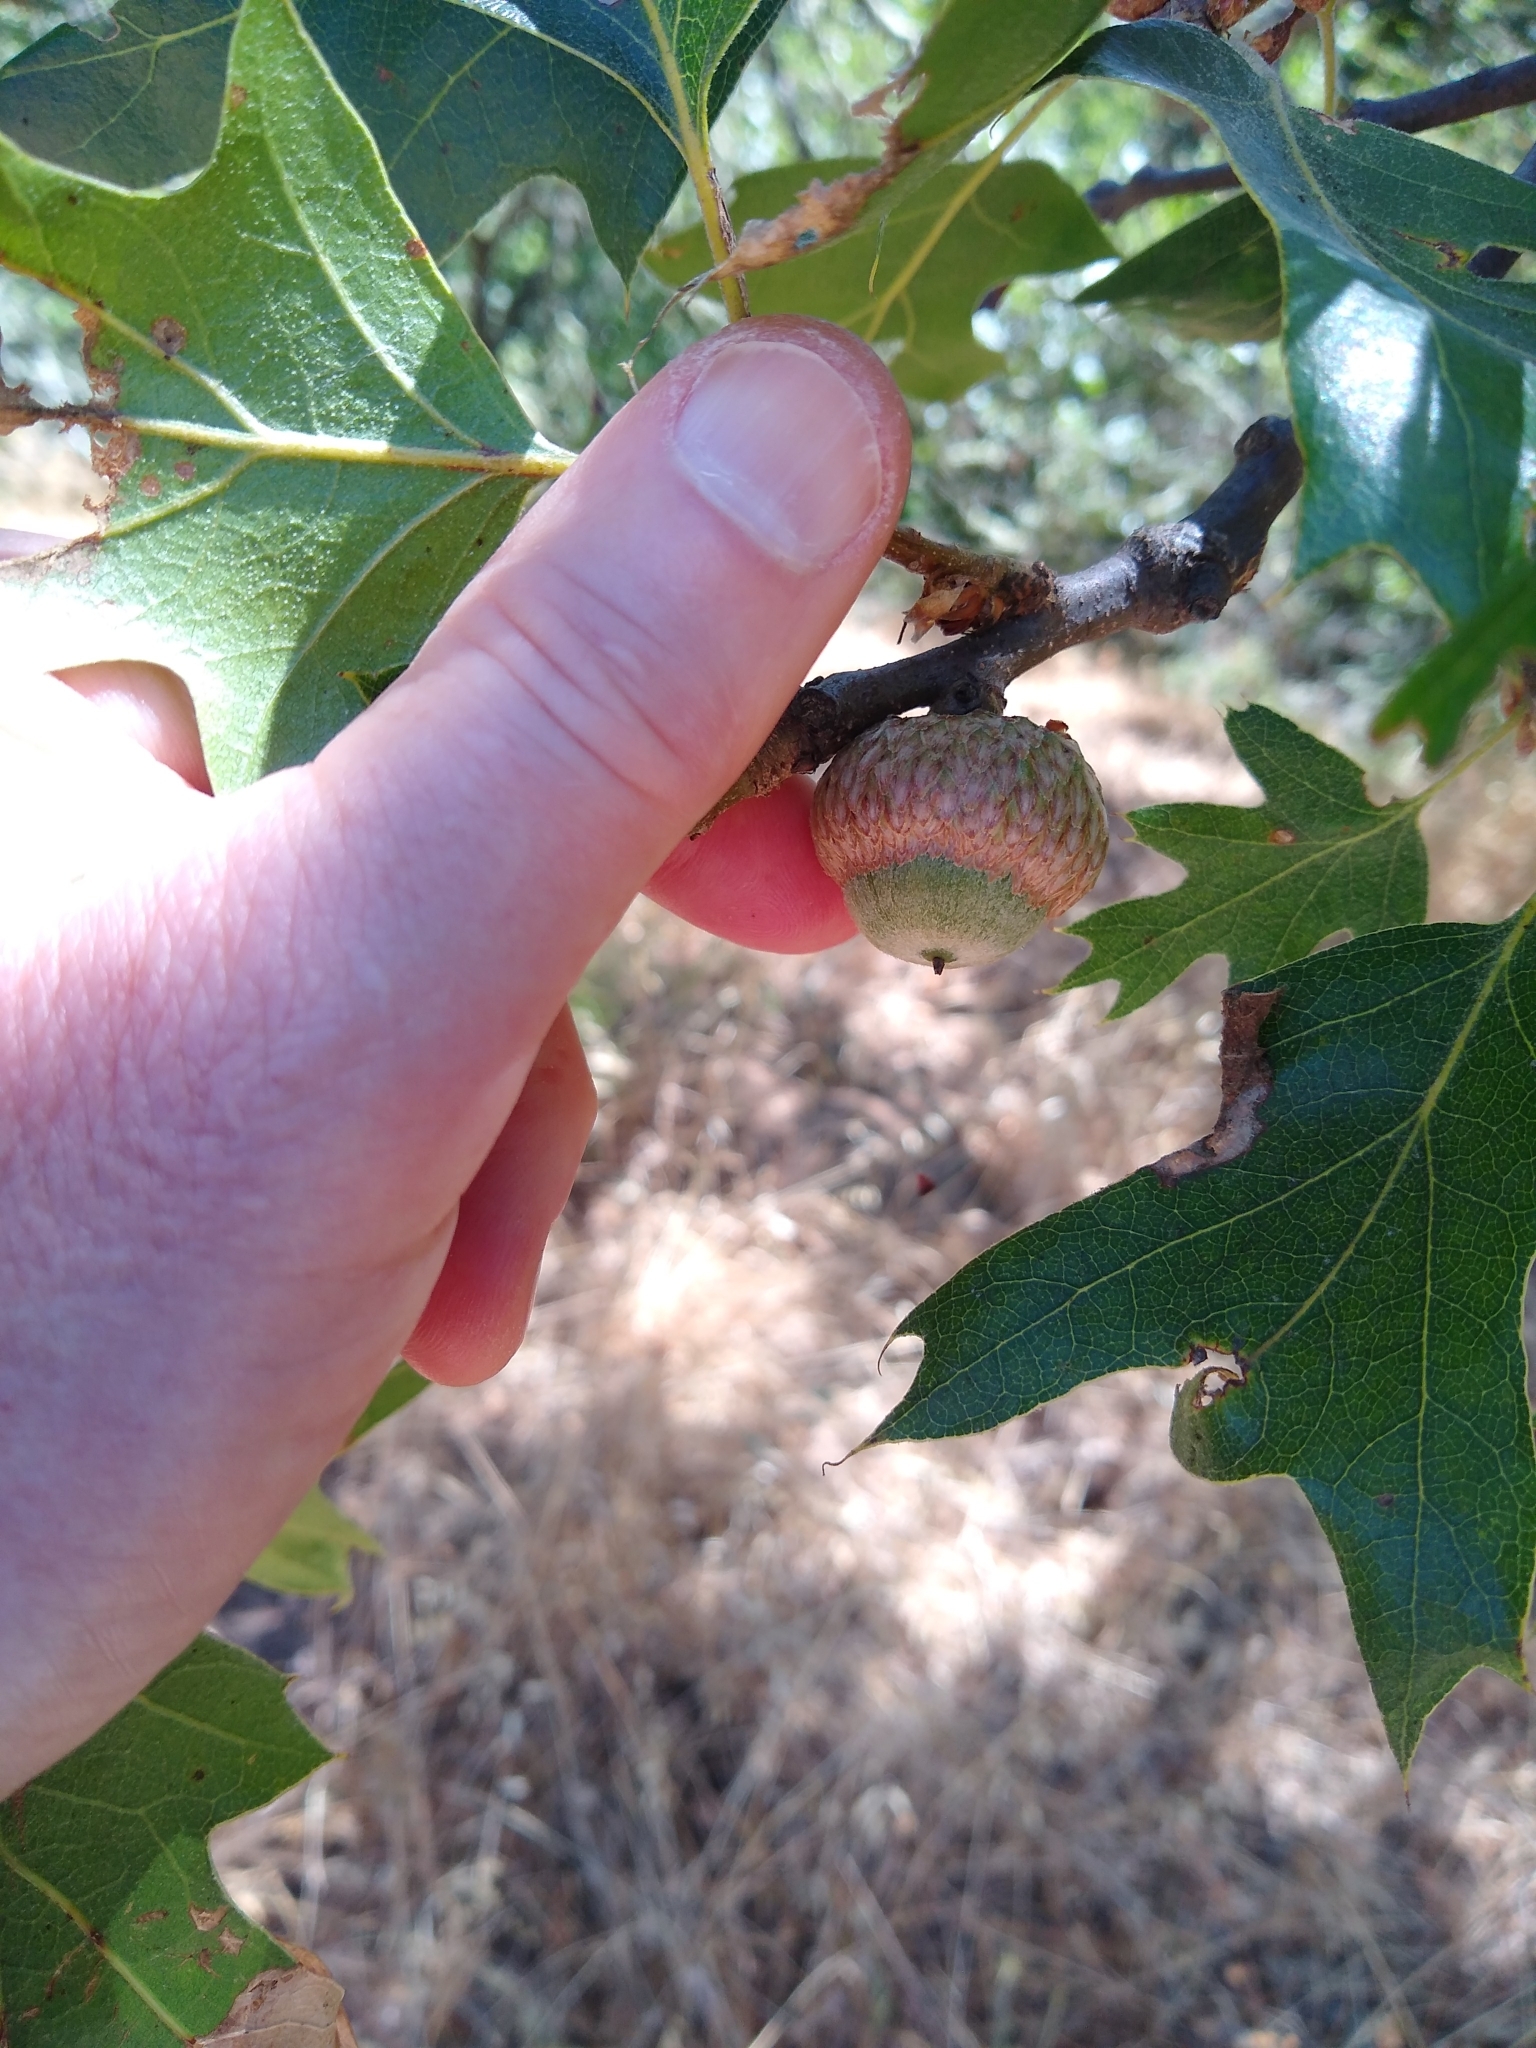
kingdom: Plantae
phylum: Tracheophyta
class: Magnoliopsida
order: Fagales
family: Fagaceae
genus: Quercus
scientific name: Quercus kelloggii
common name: California black oak
